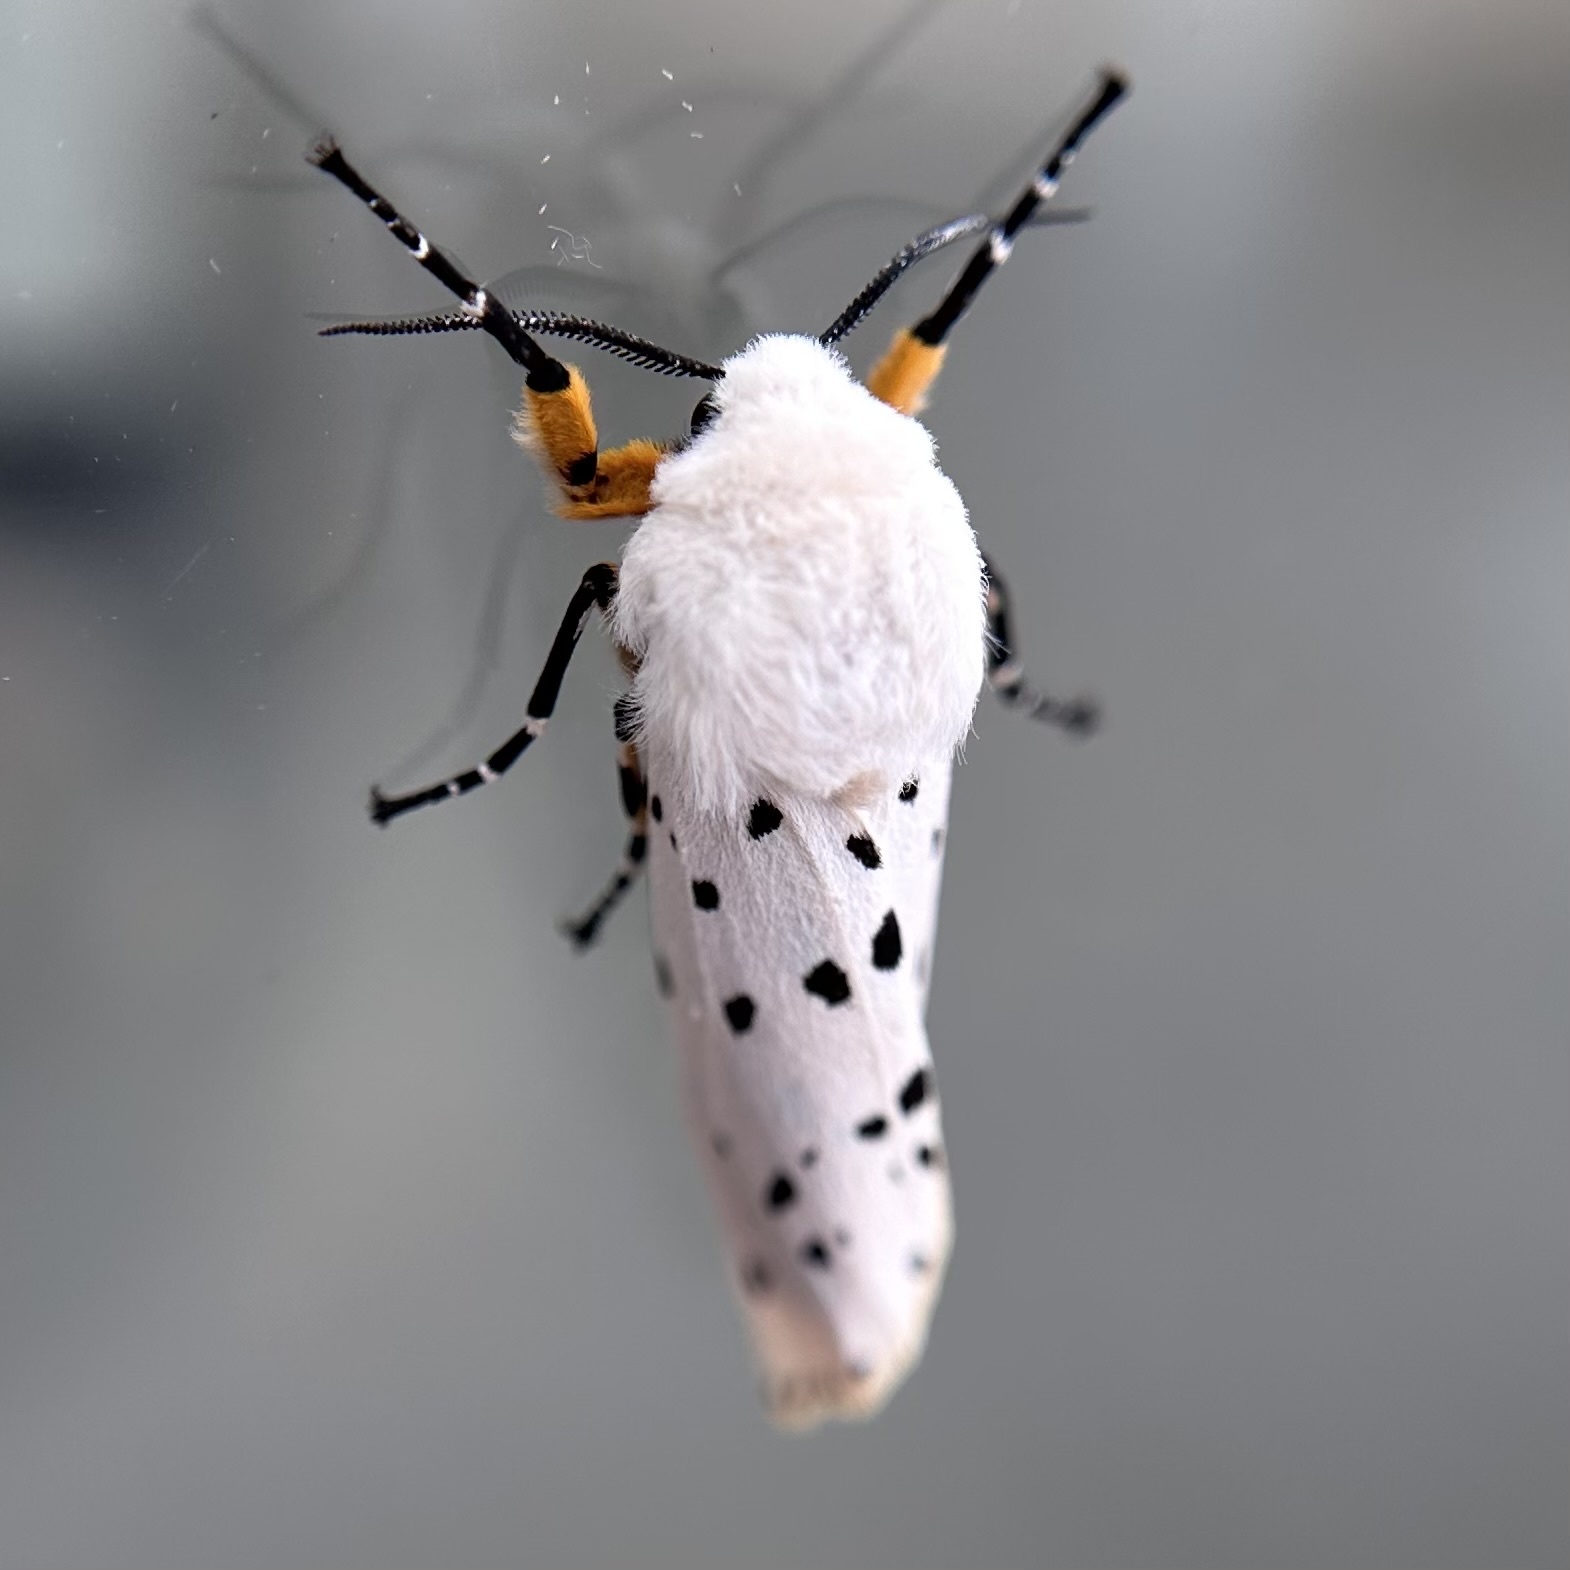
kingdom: Animalia
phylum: Arthropoda
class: Insecta
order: Lepidoptera
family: Erebidae
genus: Estigmene
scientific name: Estigmene acrea
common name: Salt marsh moth
